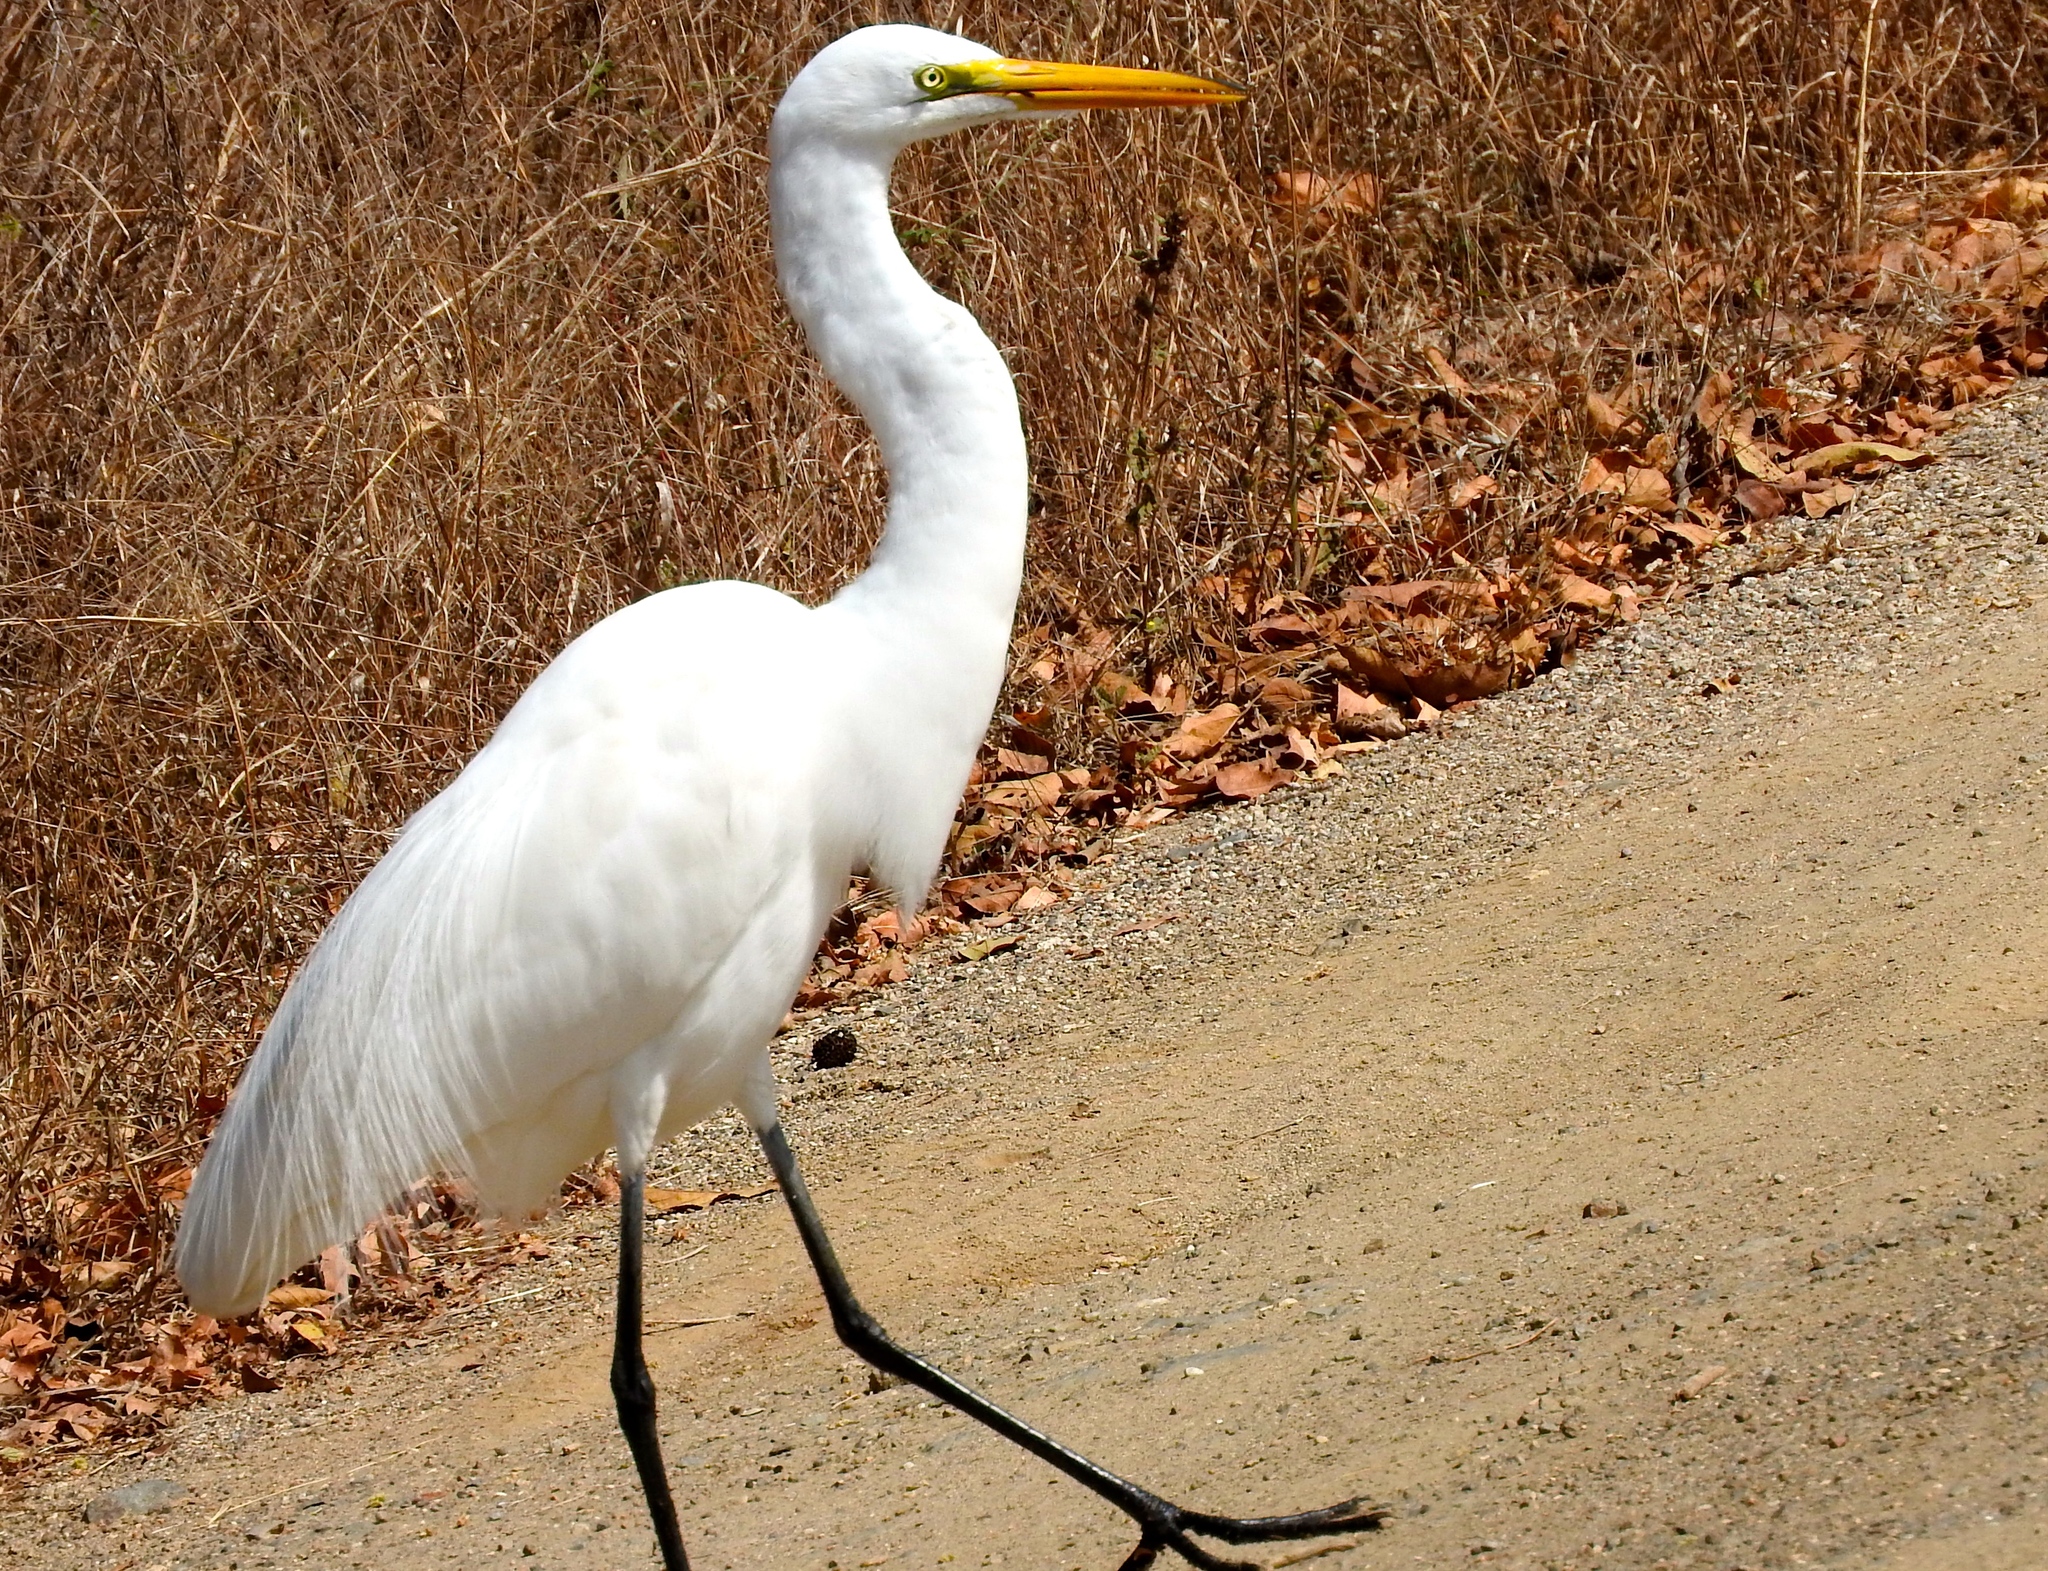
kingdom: Animalia
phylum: Chordata
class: Aves
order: Pelecaniformes
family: Ardeidae
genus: Ardea
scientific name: Ardea alba
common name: Great egret
